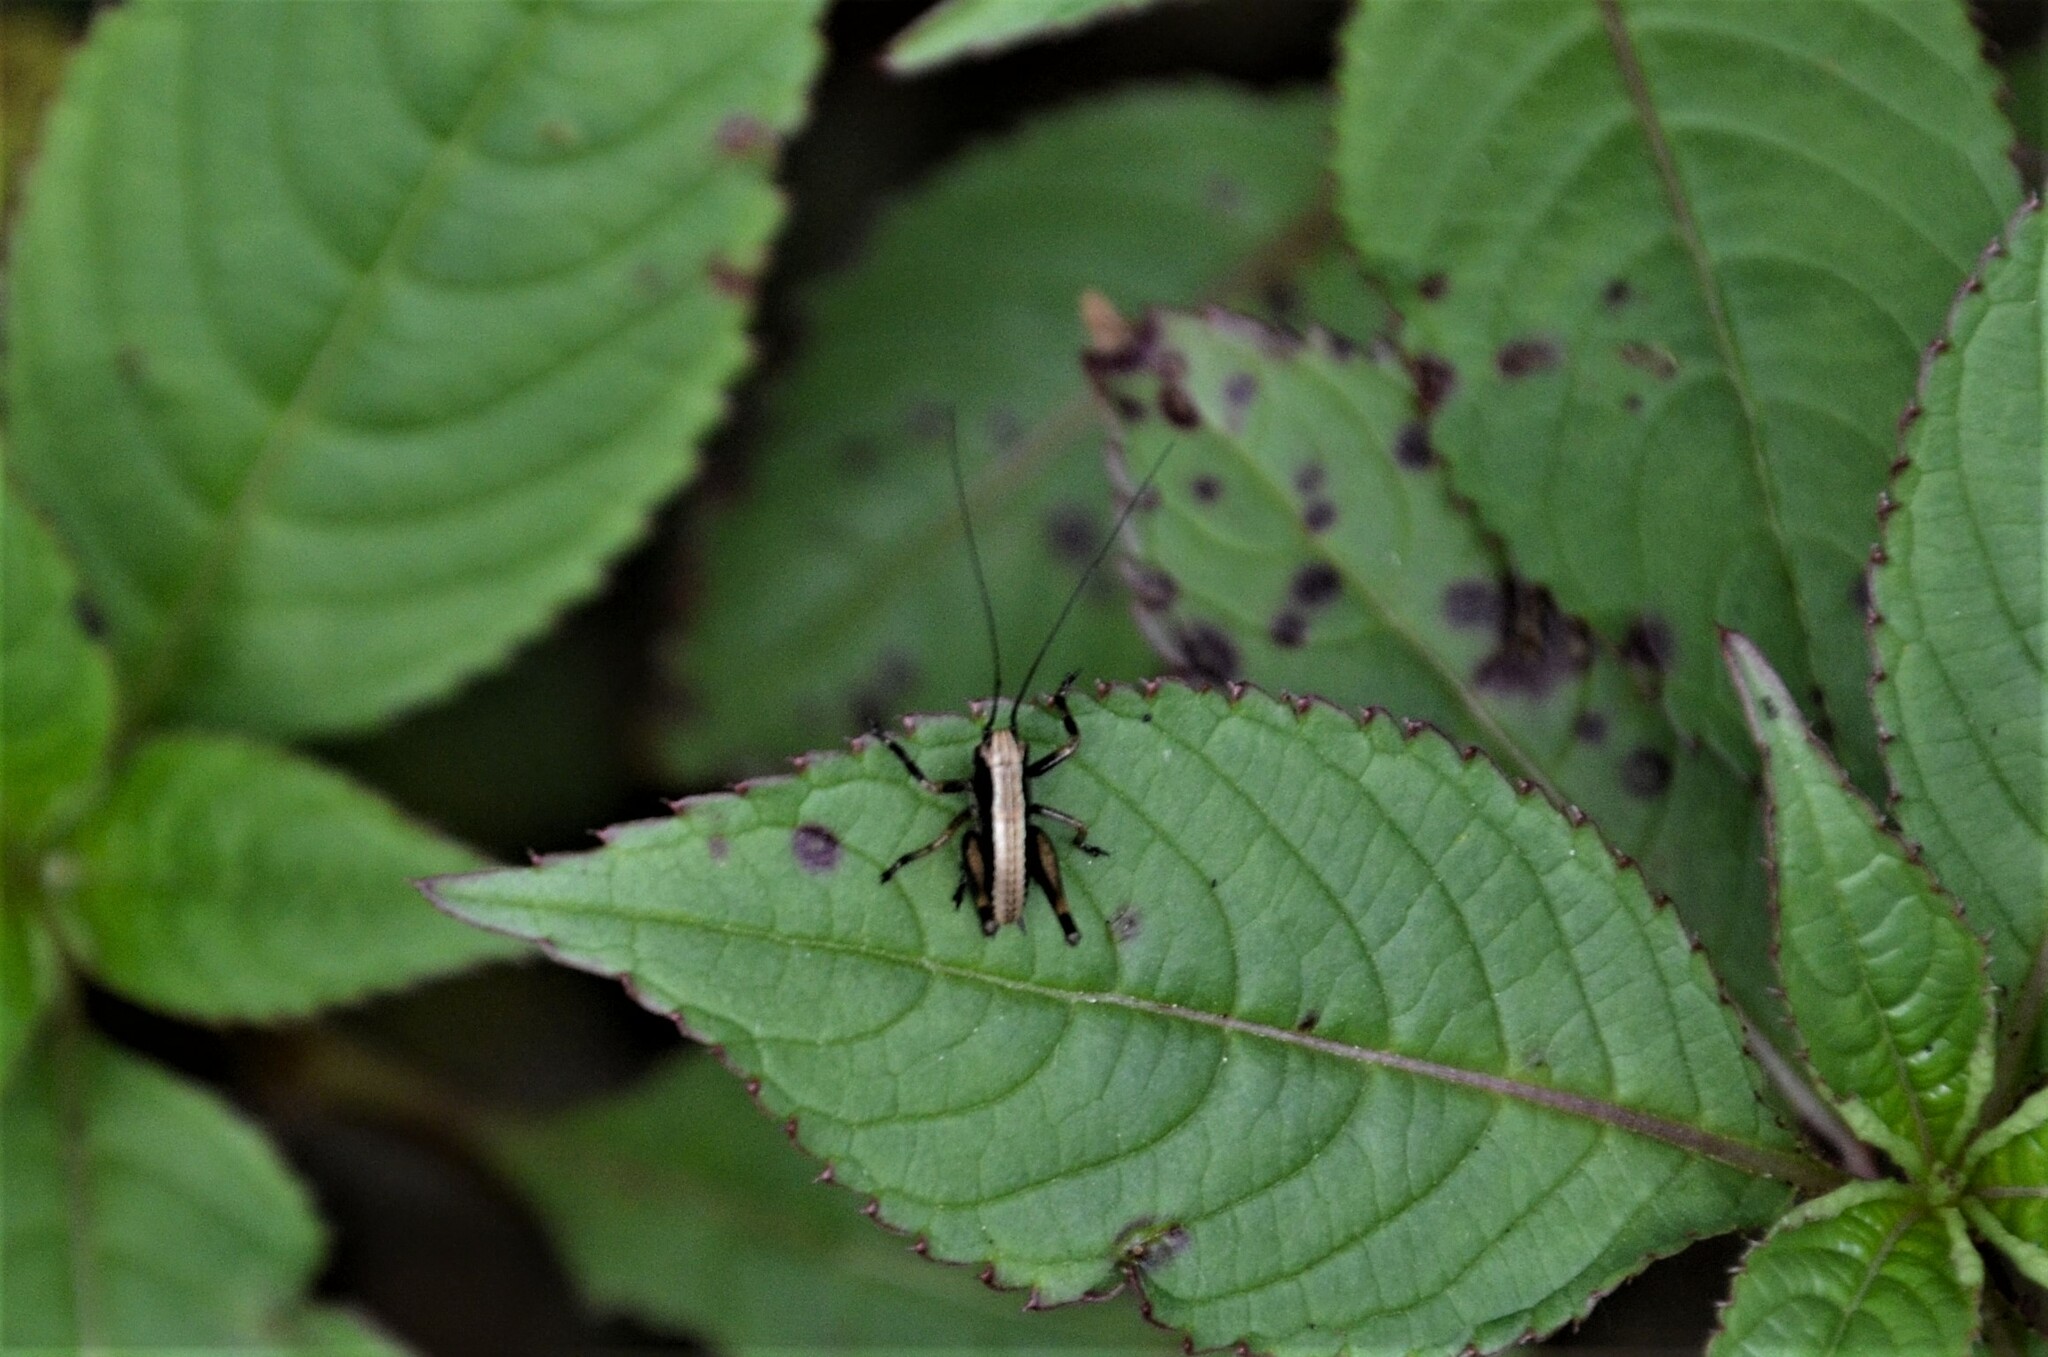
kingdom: Animalia
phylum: Arthropoda
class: Insecta
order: Orthoptera
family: Tettigoniidae
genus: Pholidoptera
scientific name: Pholidoptera griseoaptera
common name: Dark bush-cricket
